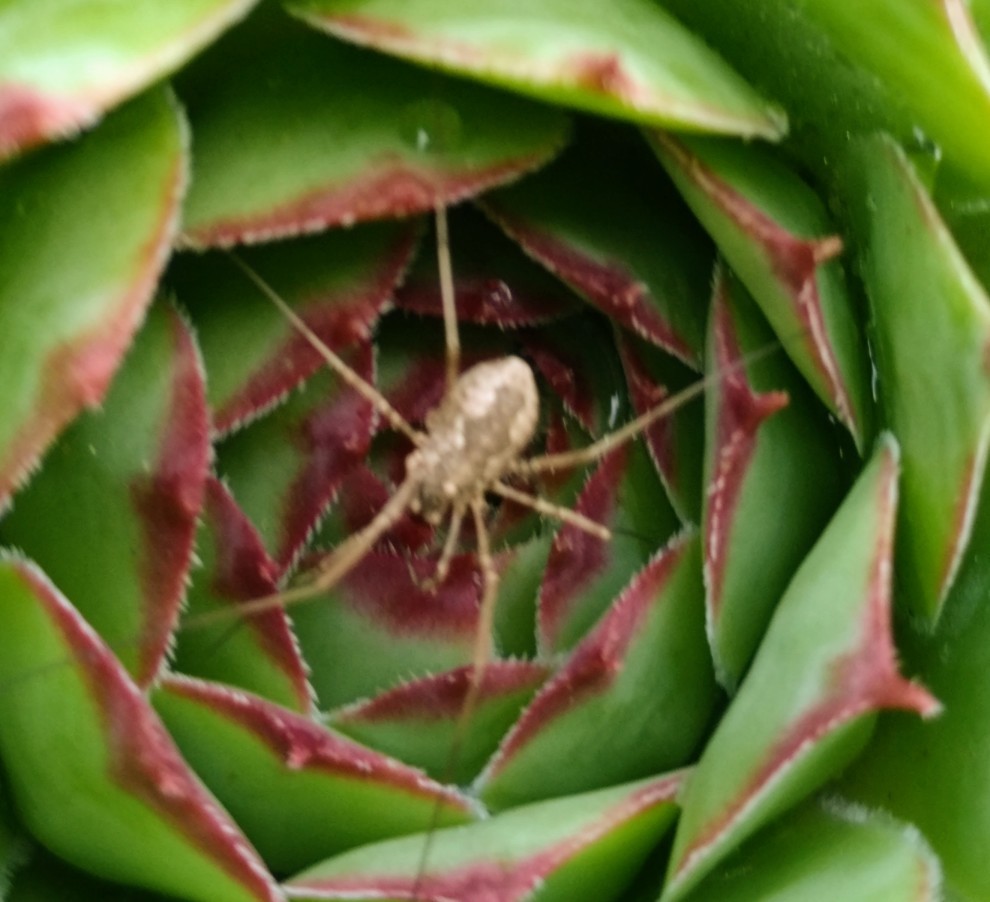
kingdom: Animalia
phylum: Arthropoda
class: Arachnida
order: Opiliones
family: Phalangiidae
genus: Phalangium
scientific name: Phalangium opilio
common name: Daddy longleg
